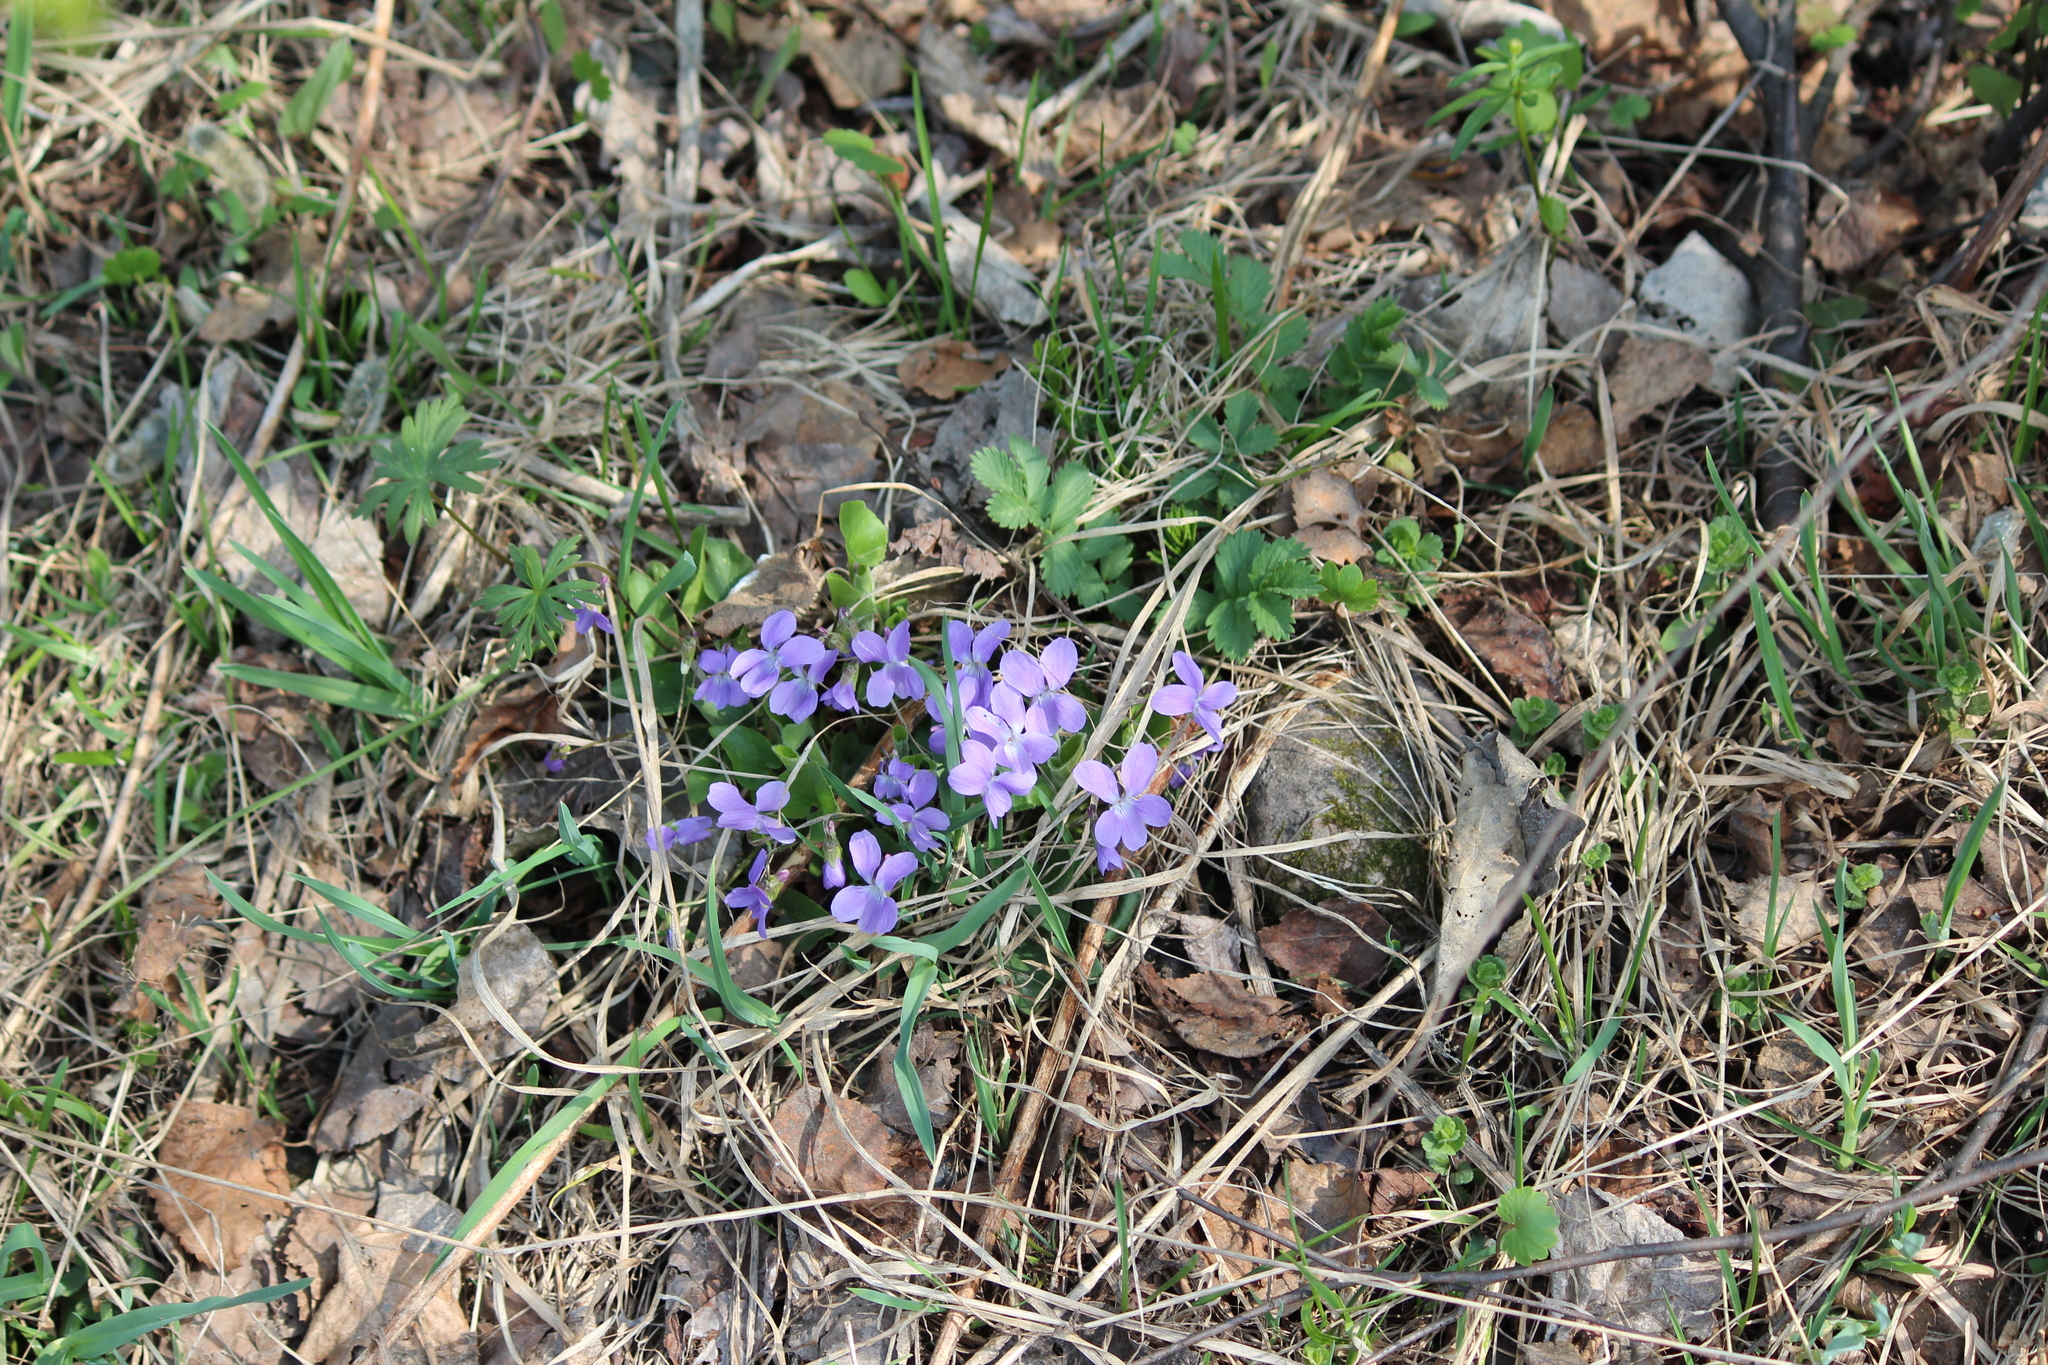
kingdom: Plantae
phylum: Tracheophyta
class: Magnoliopsida
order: Malpighiales
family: Violaceae
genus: Viola
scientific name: Viola hirta
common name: Hairy violet
